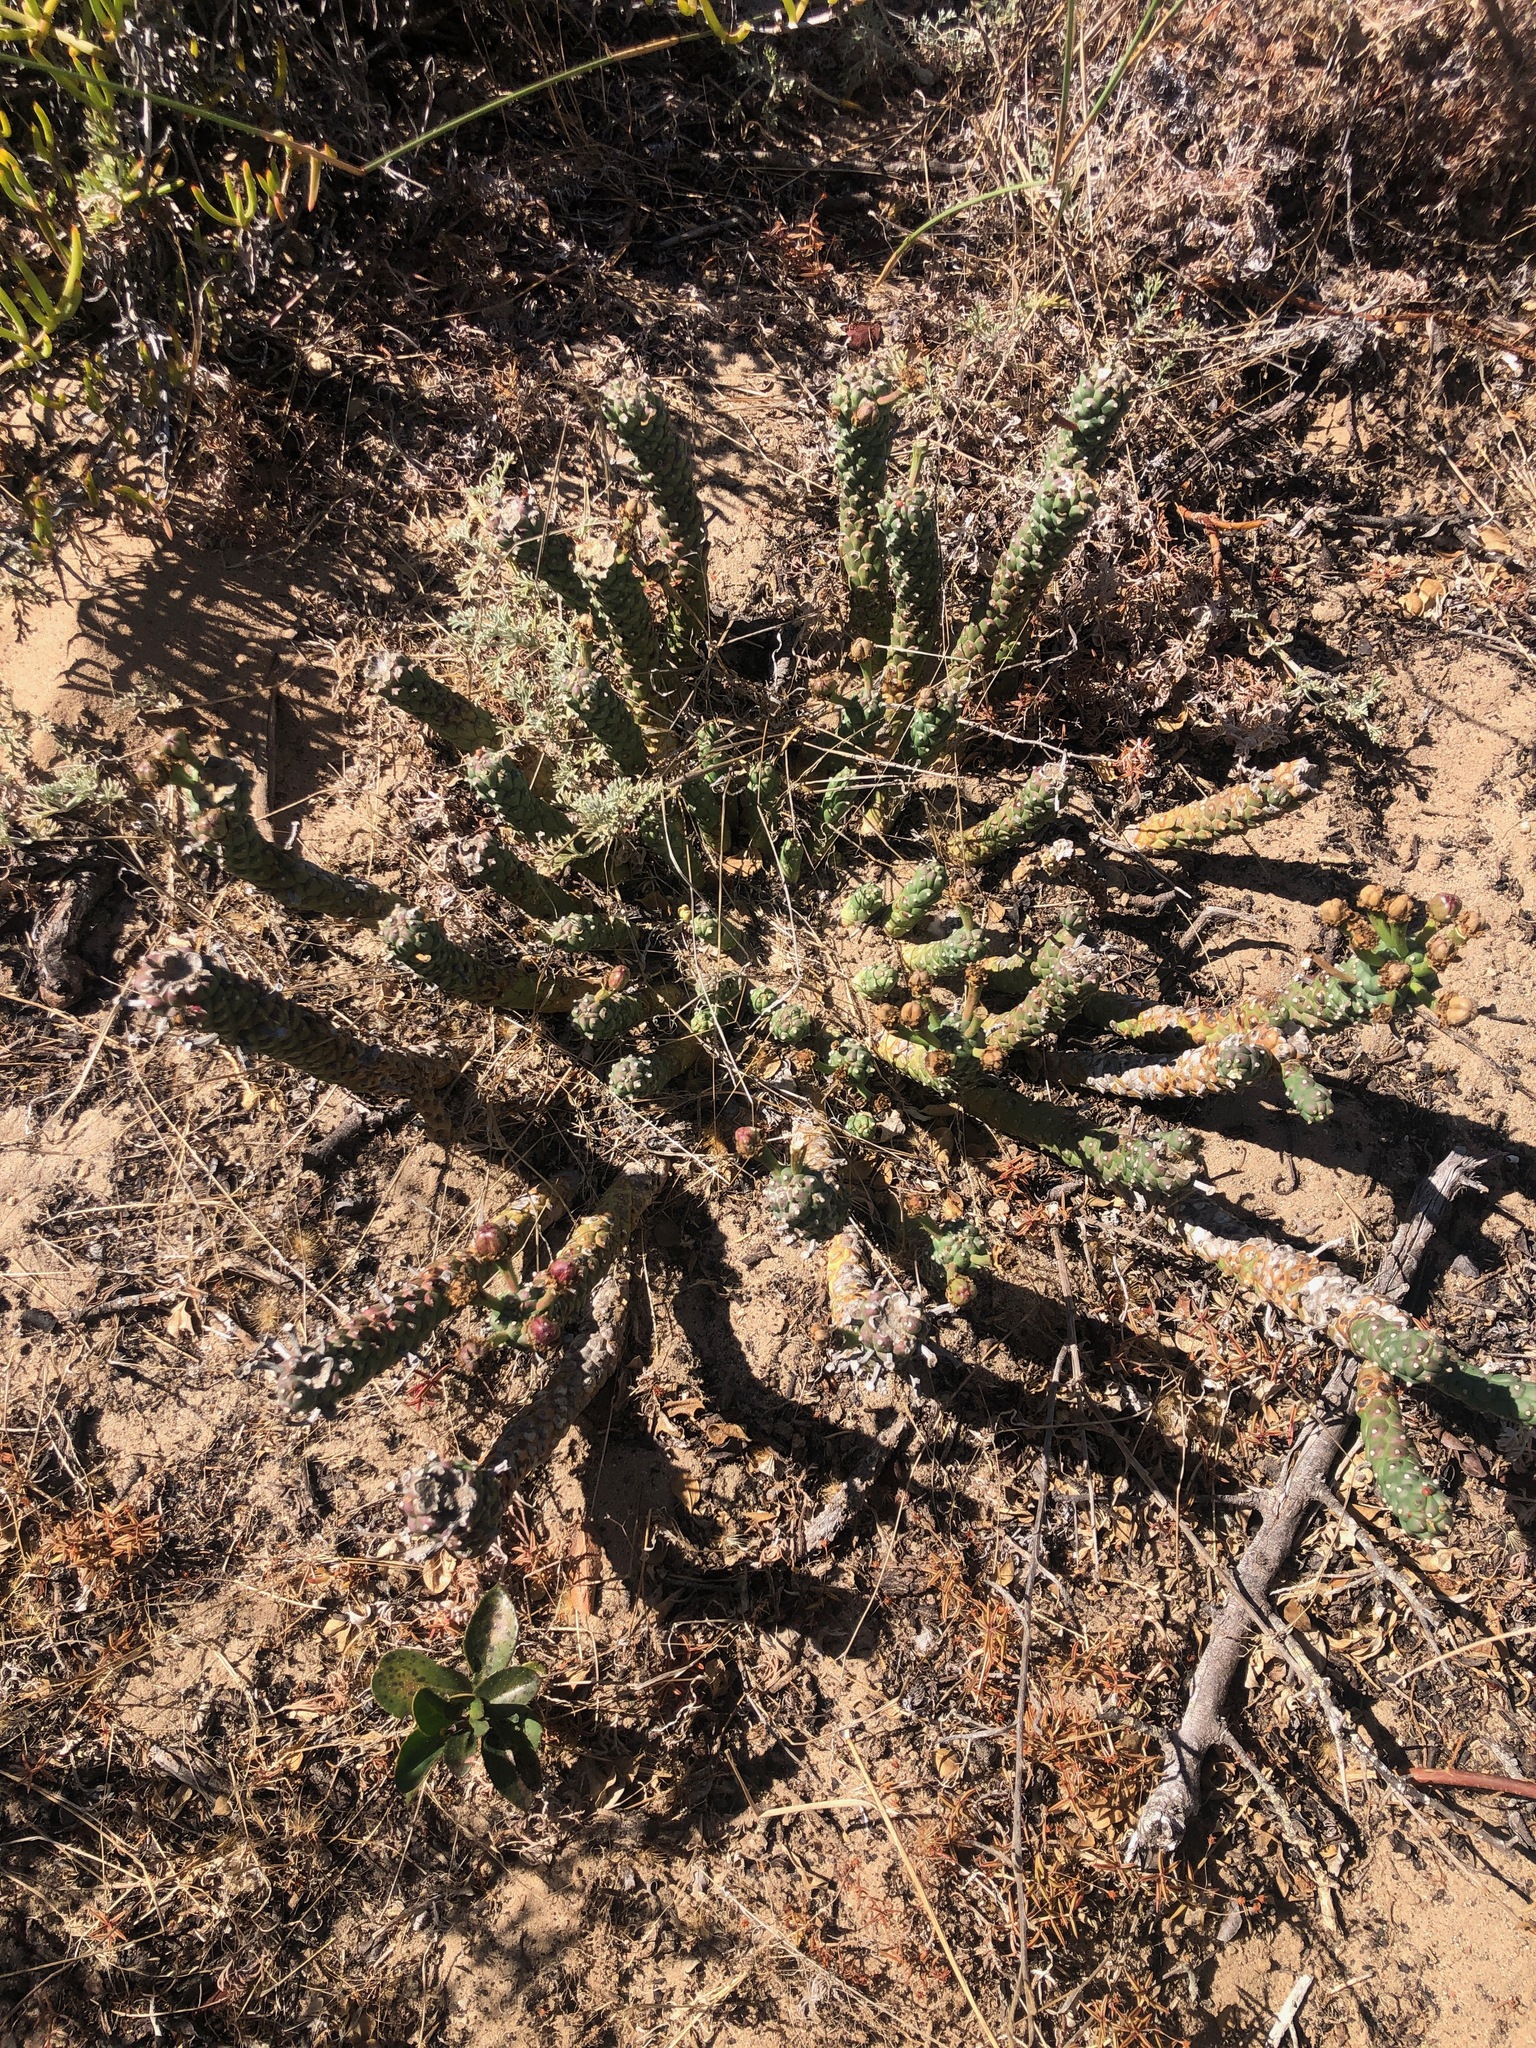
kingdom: Plantae
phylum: Tracheophyta
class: Magnoliopsida
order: Malpighiales
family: Euphorbiaceae
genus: Euphorbia
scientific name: Euphorbia caput-medusae
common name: Medusa's-head
